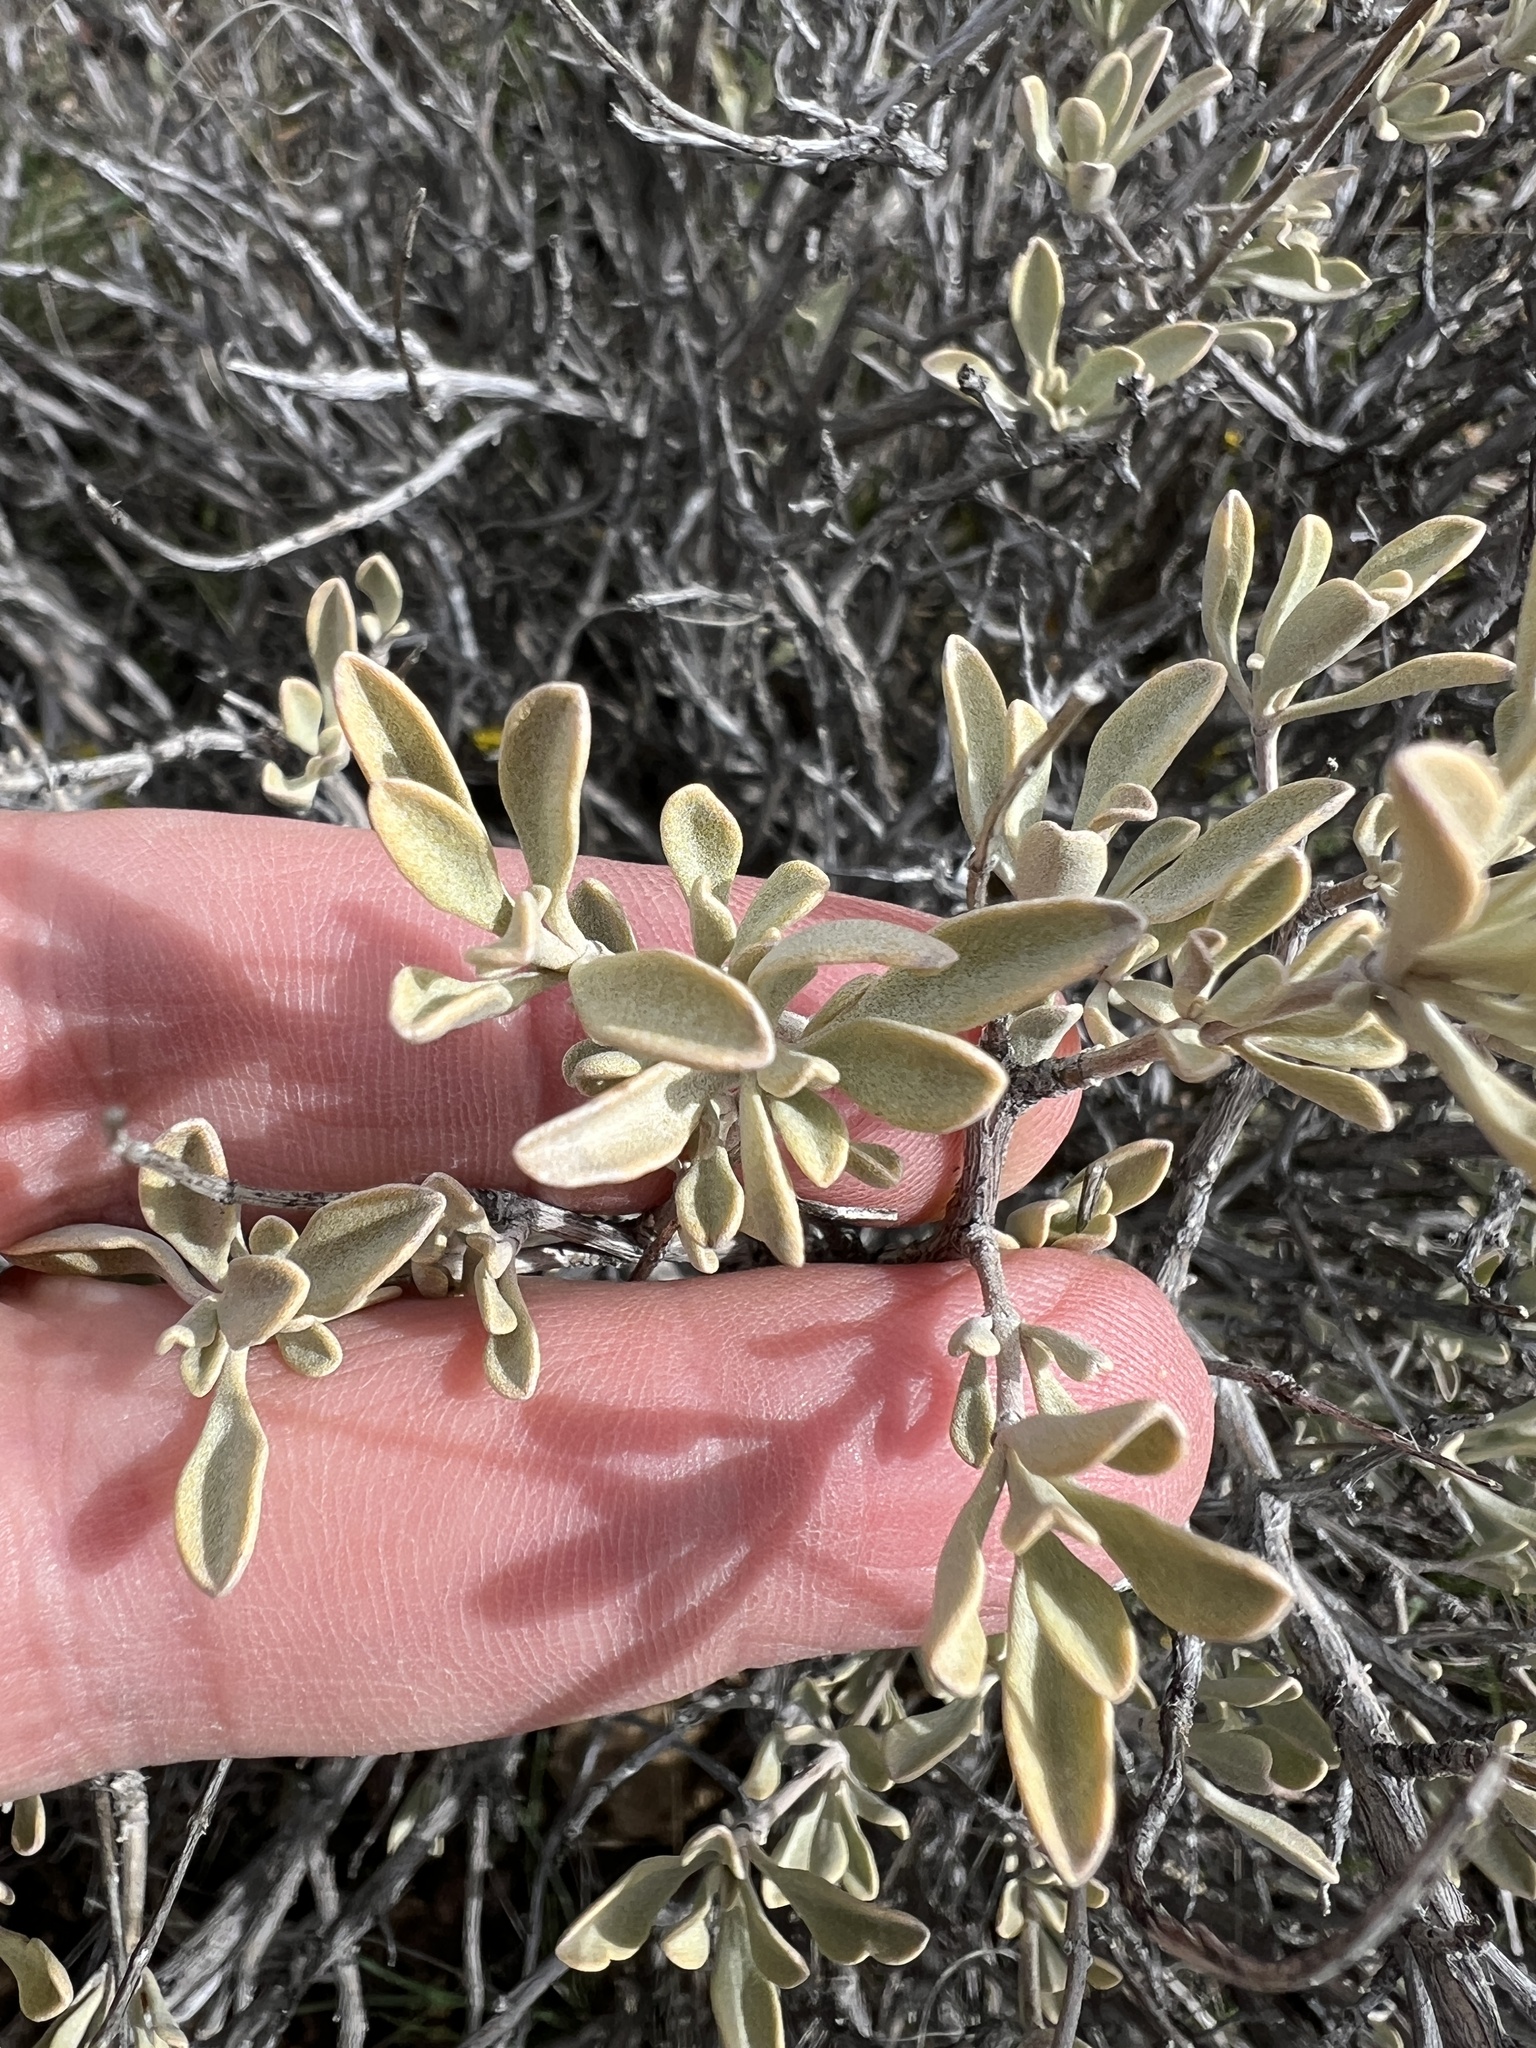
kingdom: Plantae
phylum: Tracheophyta
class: Magnoliopsida
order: Lamiales
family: Lamiaceae
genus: Salvia
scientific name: Salvia dorrii
